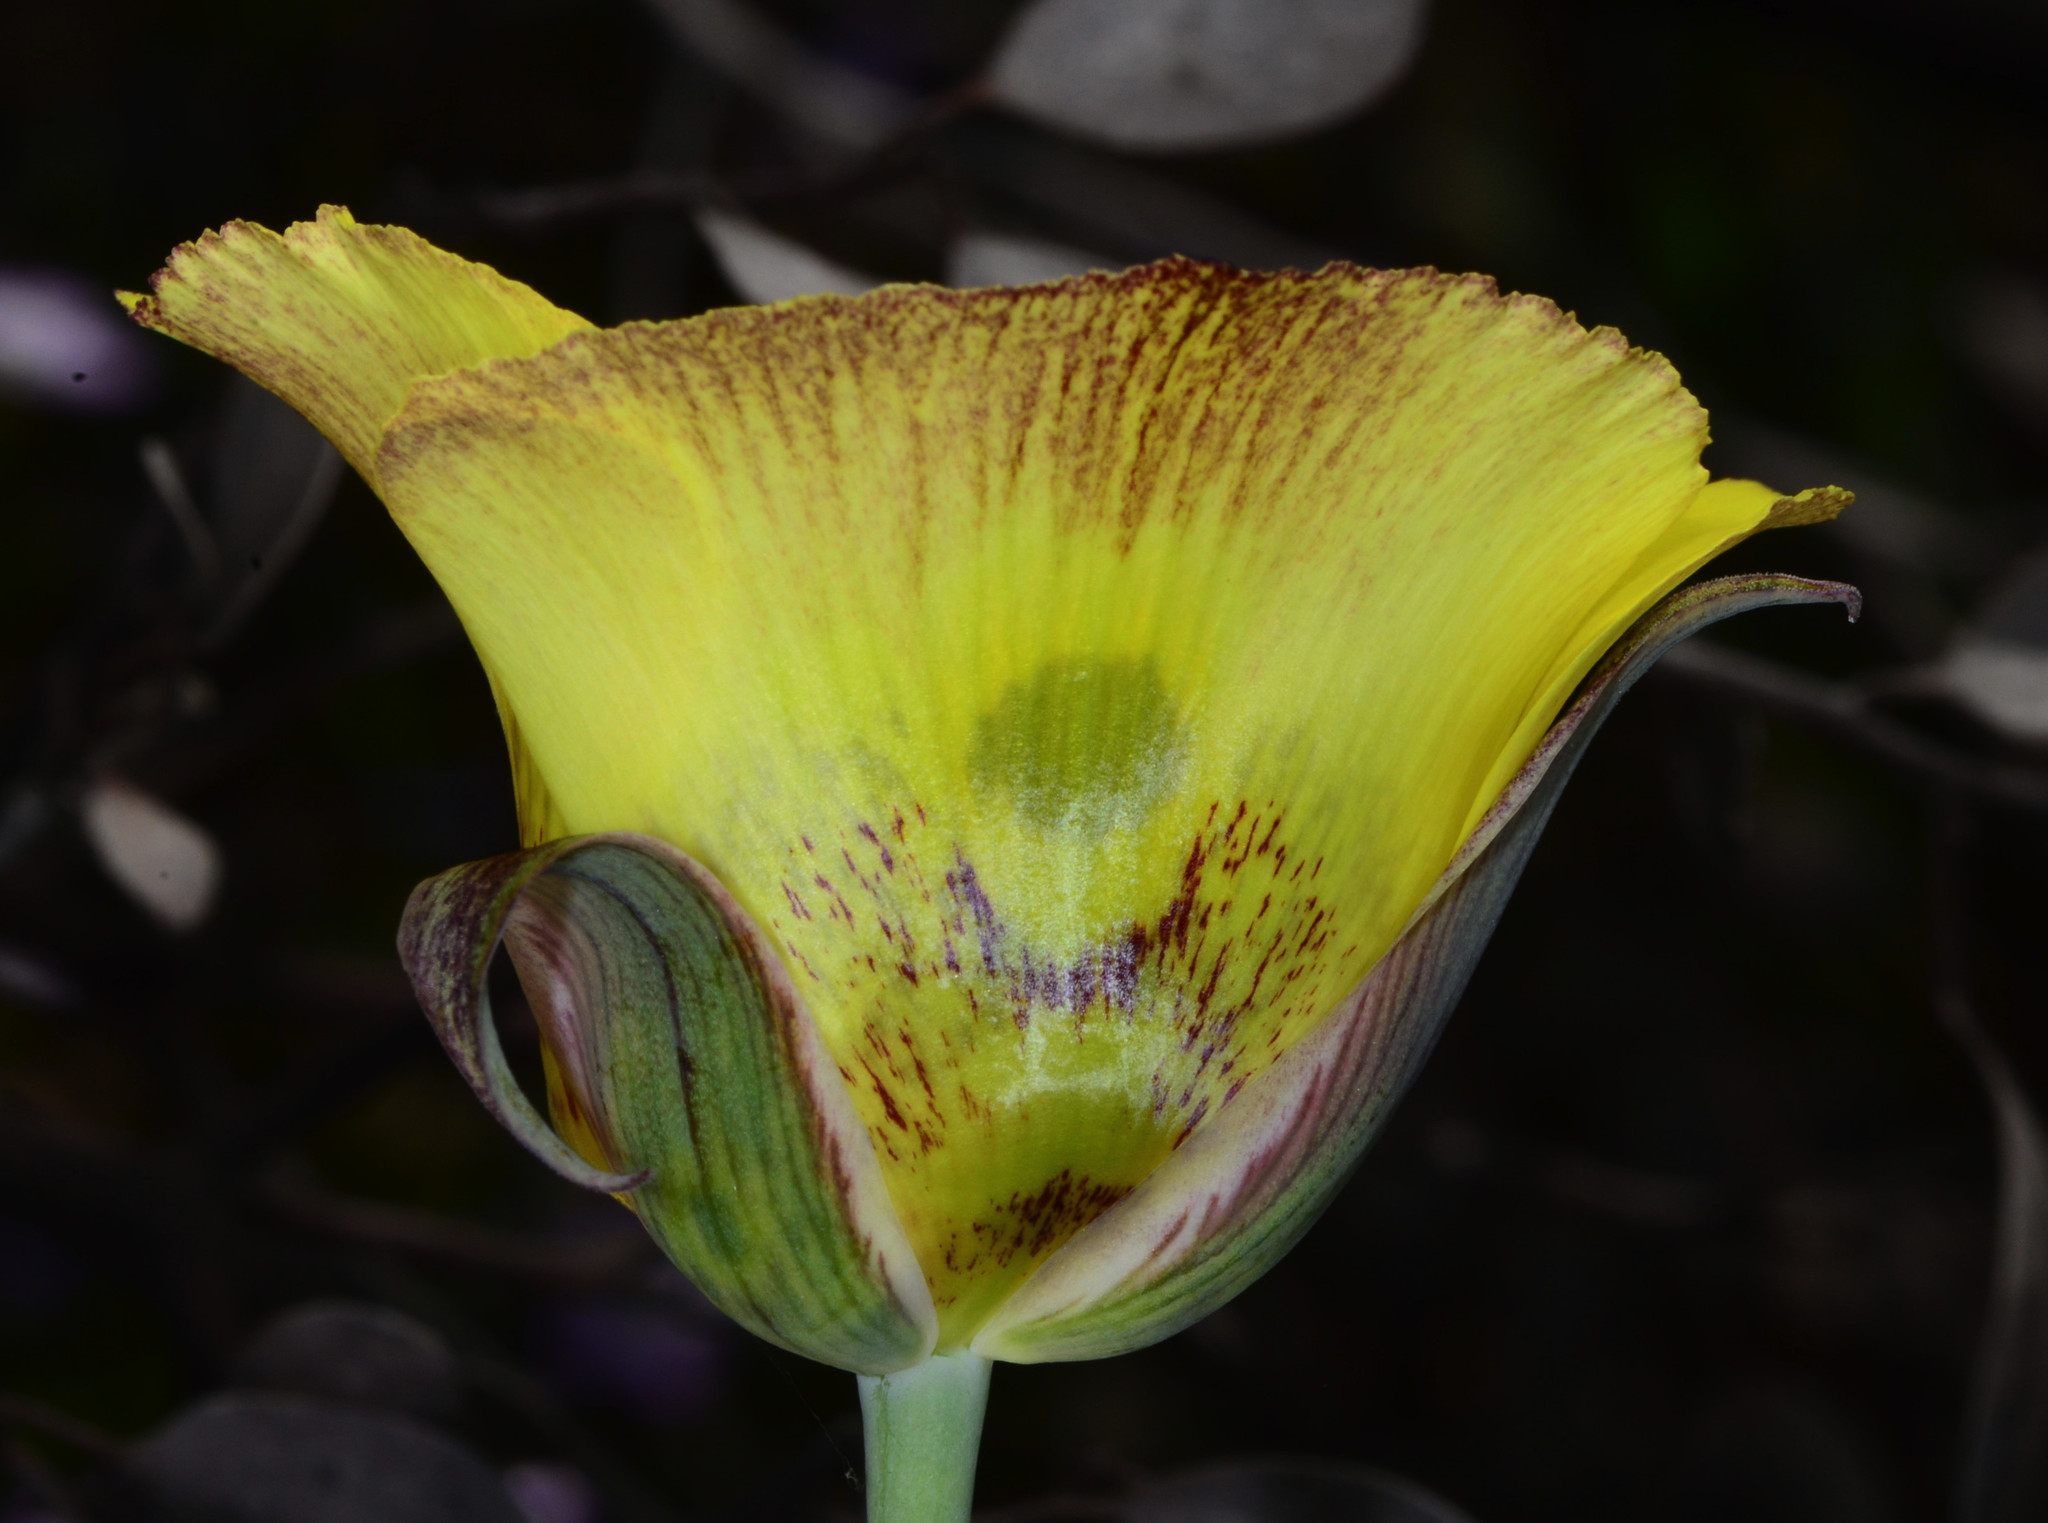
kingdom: Plantae
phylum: Tracheophyta
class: Liliopsida
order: Liliales
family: Liliaceae
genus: Calochortus
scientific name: Calochortus superbus
